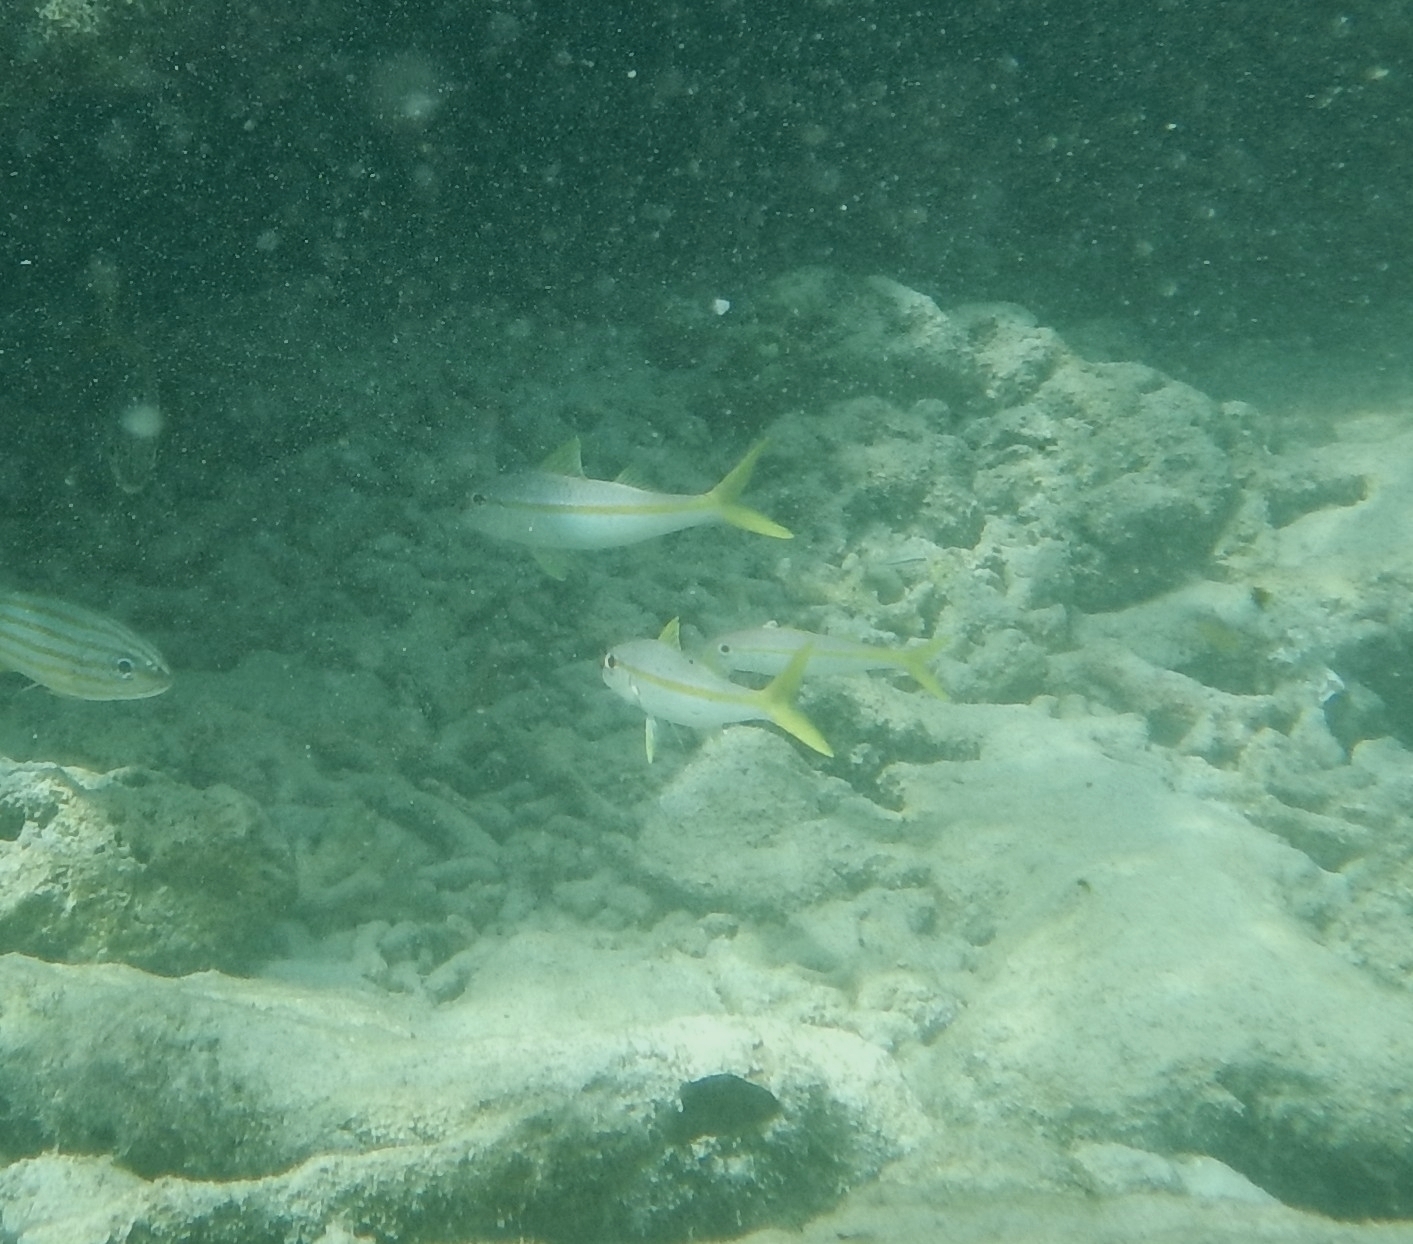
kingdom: Animalia
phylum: Chordata
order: Perciformes
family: Mullidae
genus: Mulloidichthys
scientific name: Mulloidichthys martinicus
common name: Yellow goatfish
